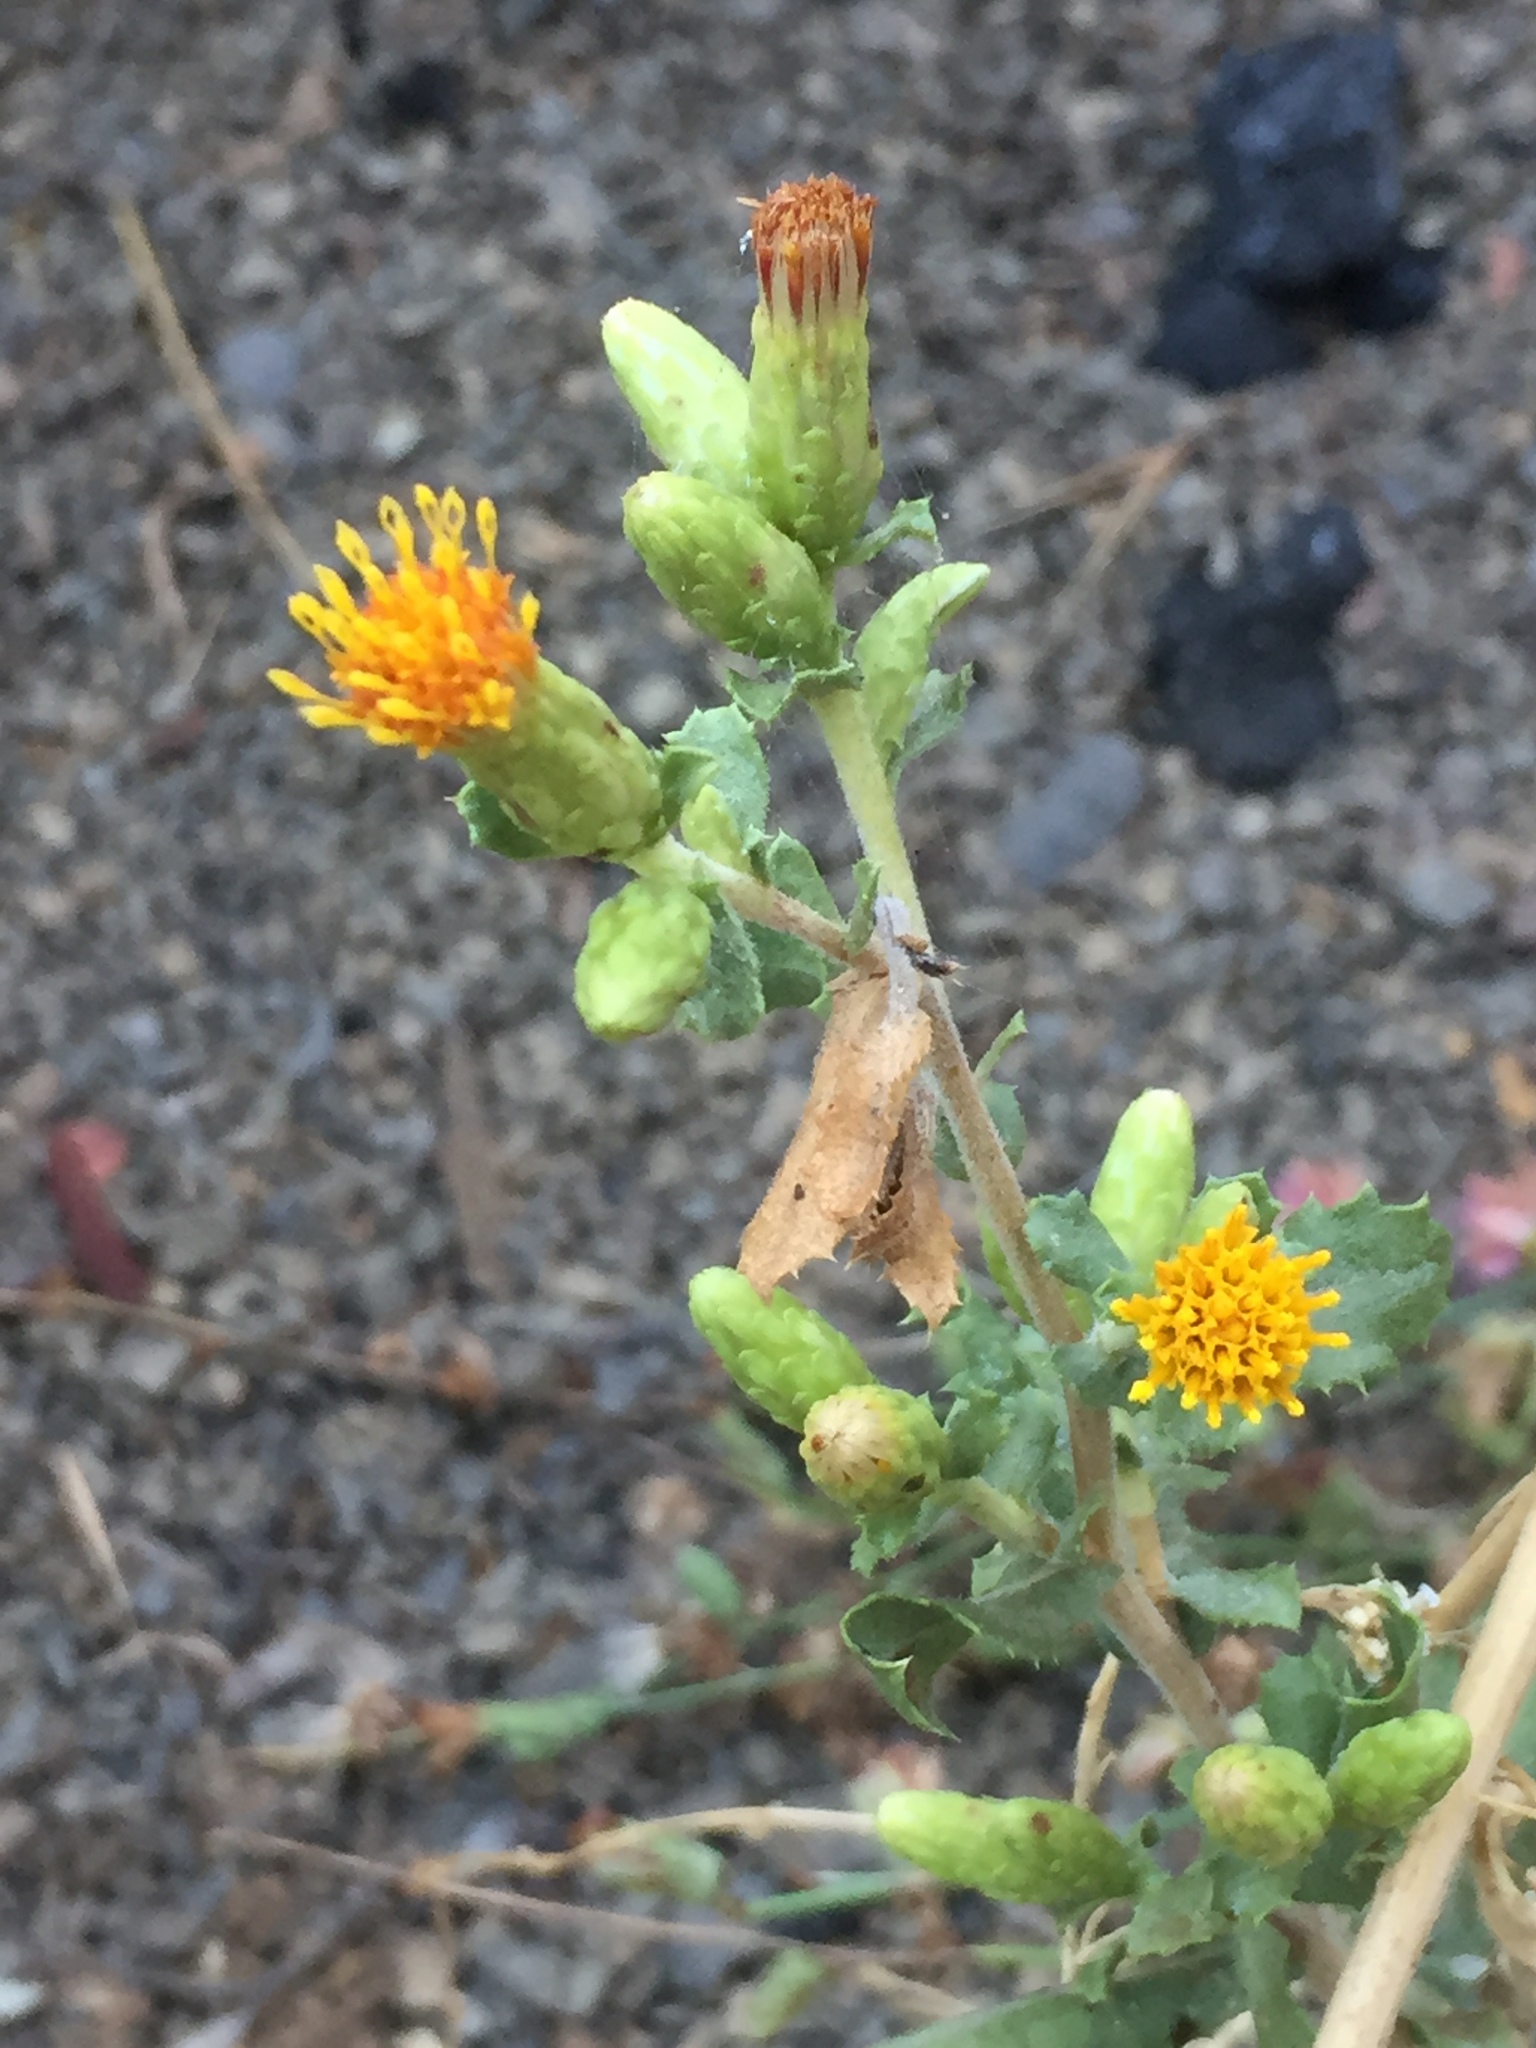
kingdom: Plantae
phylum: Tracheophyta
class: Magnoliopsida
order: Asterales
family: Asteraceae
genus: Hazardia
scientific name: Hazardia squarrosa
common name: Saw-tooth goldenbush
